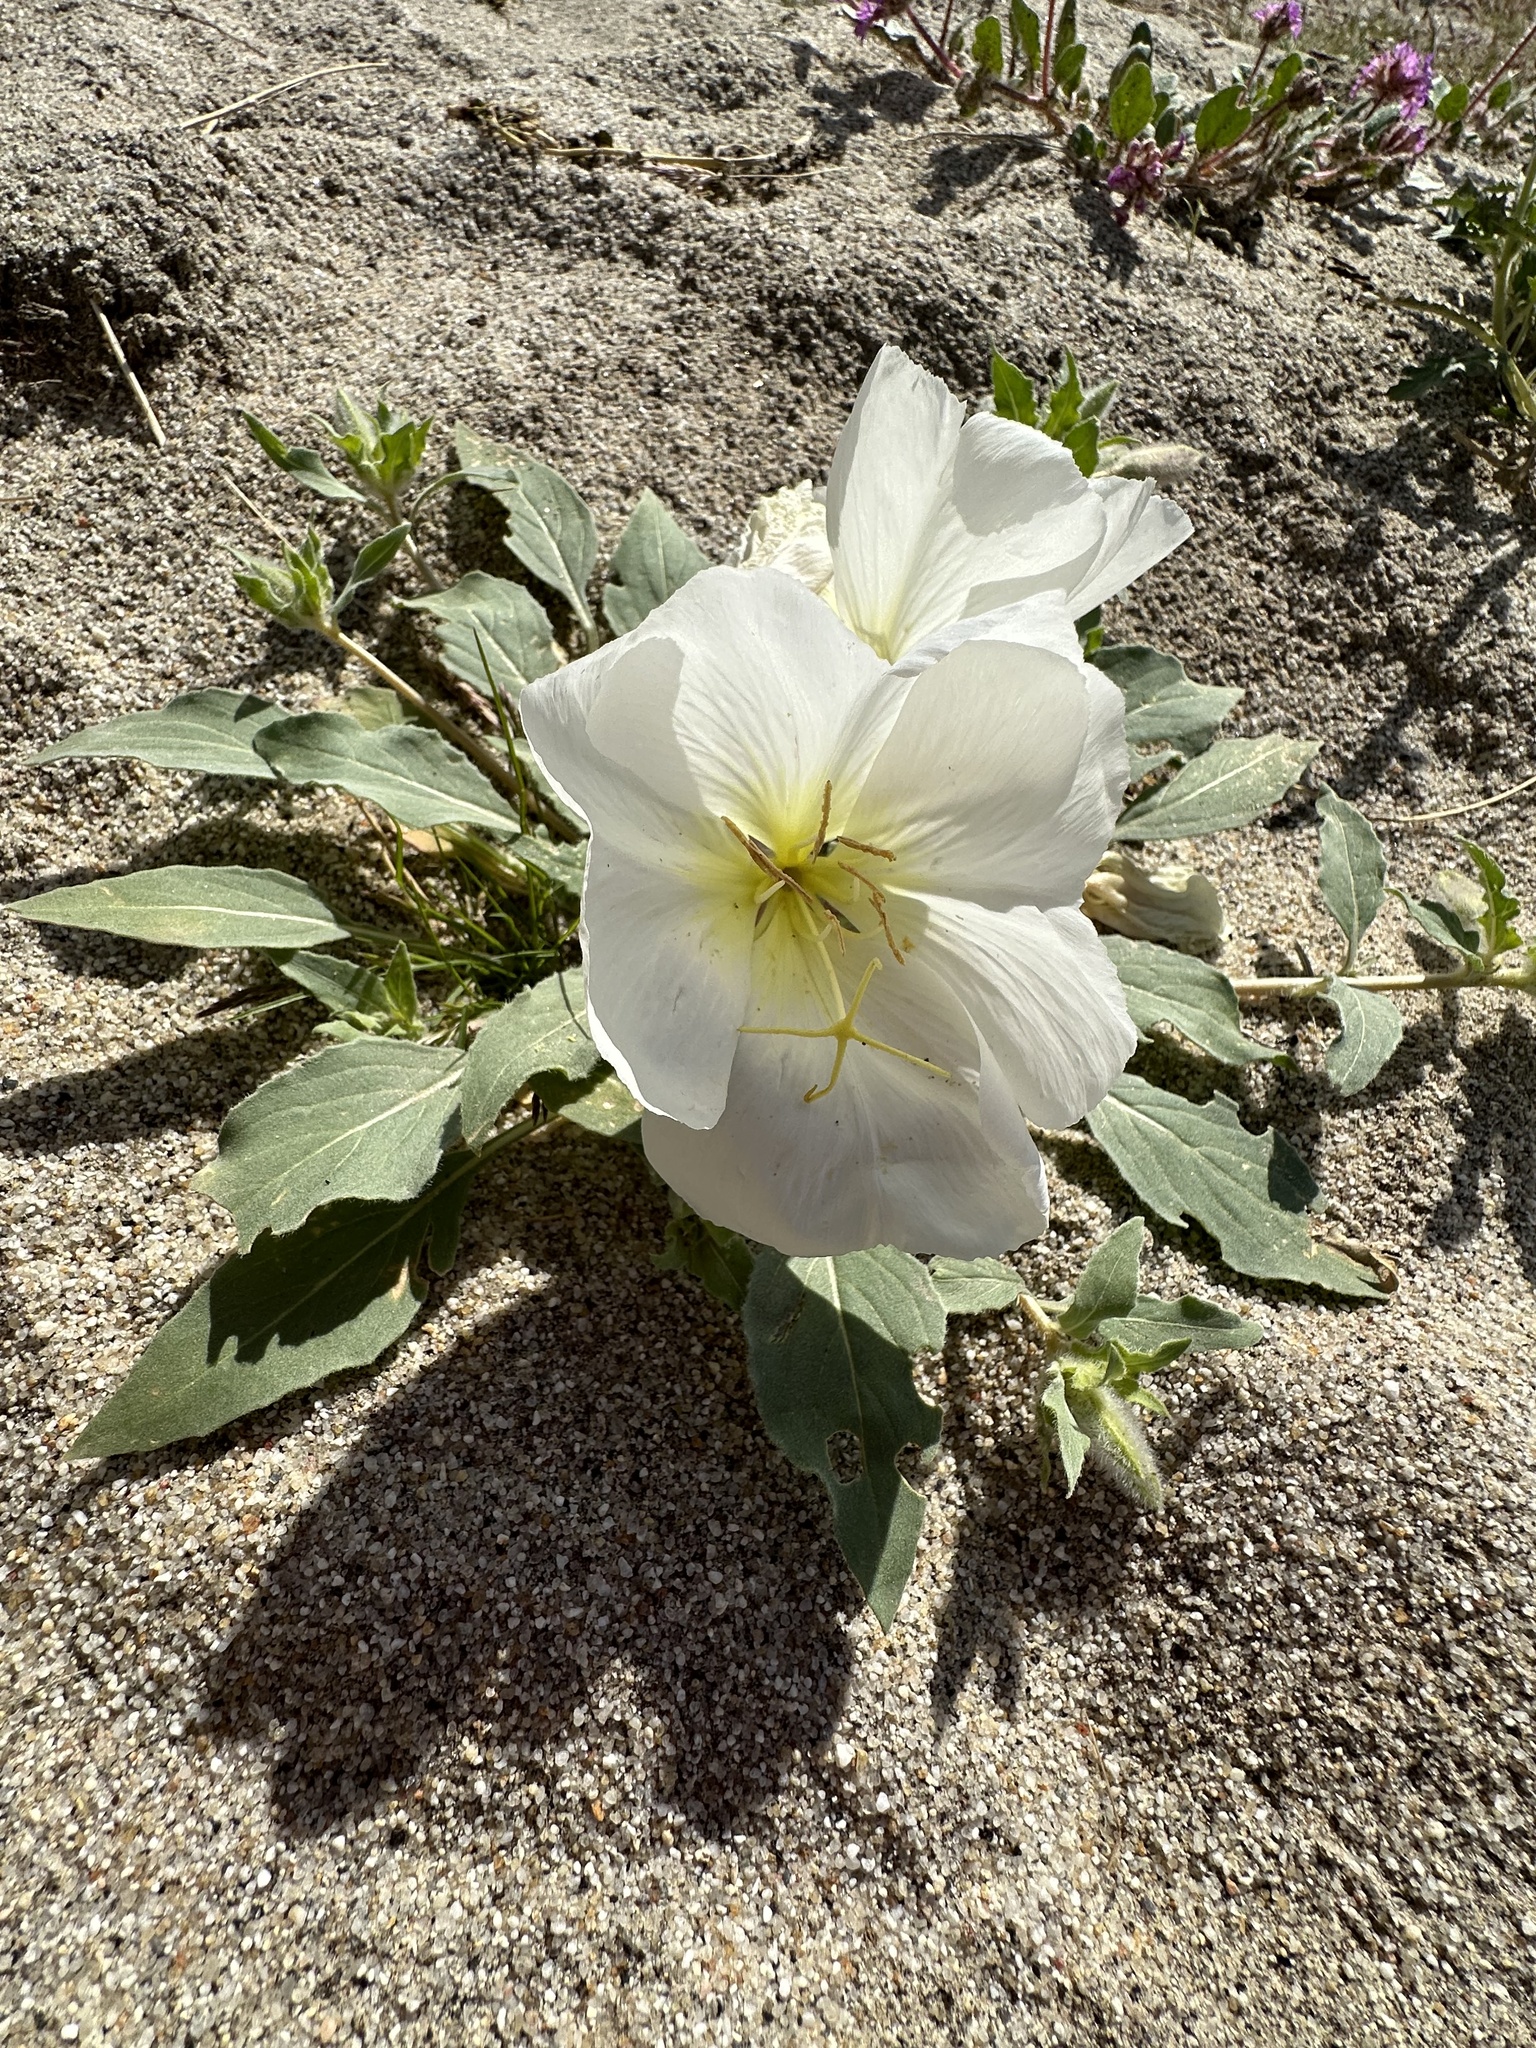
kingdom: Plantae
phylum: Tracheophyta
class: Magnoliopsida
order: Myrtales
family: Onagraceae
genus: Oenothera
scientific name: Oenothera deltoides
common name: Basket evening-primrose
